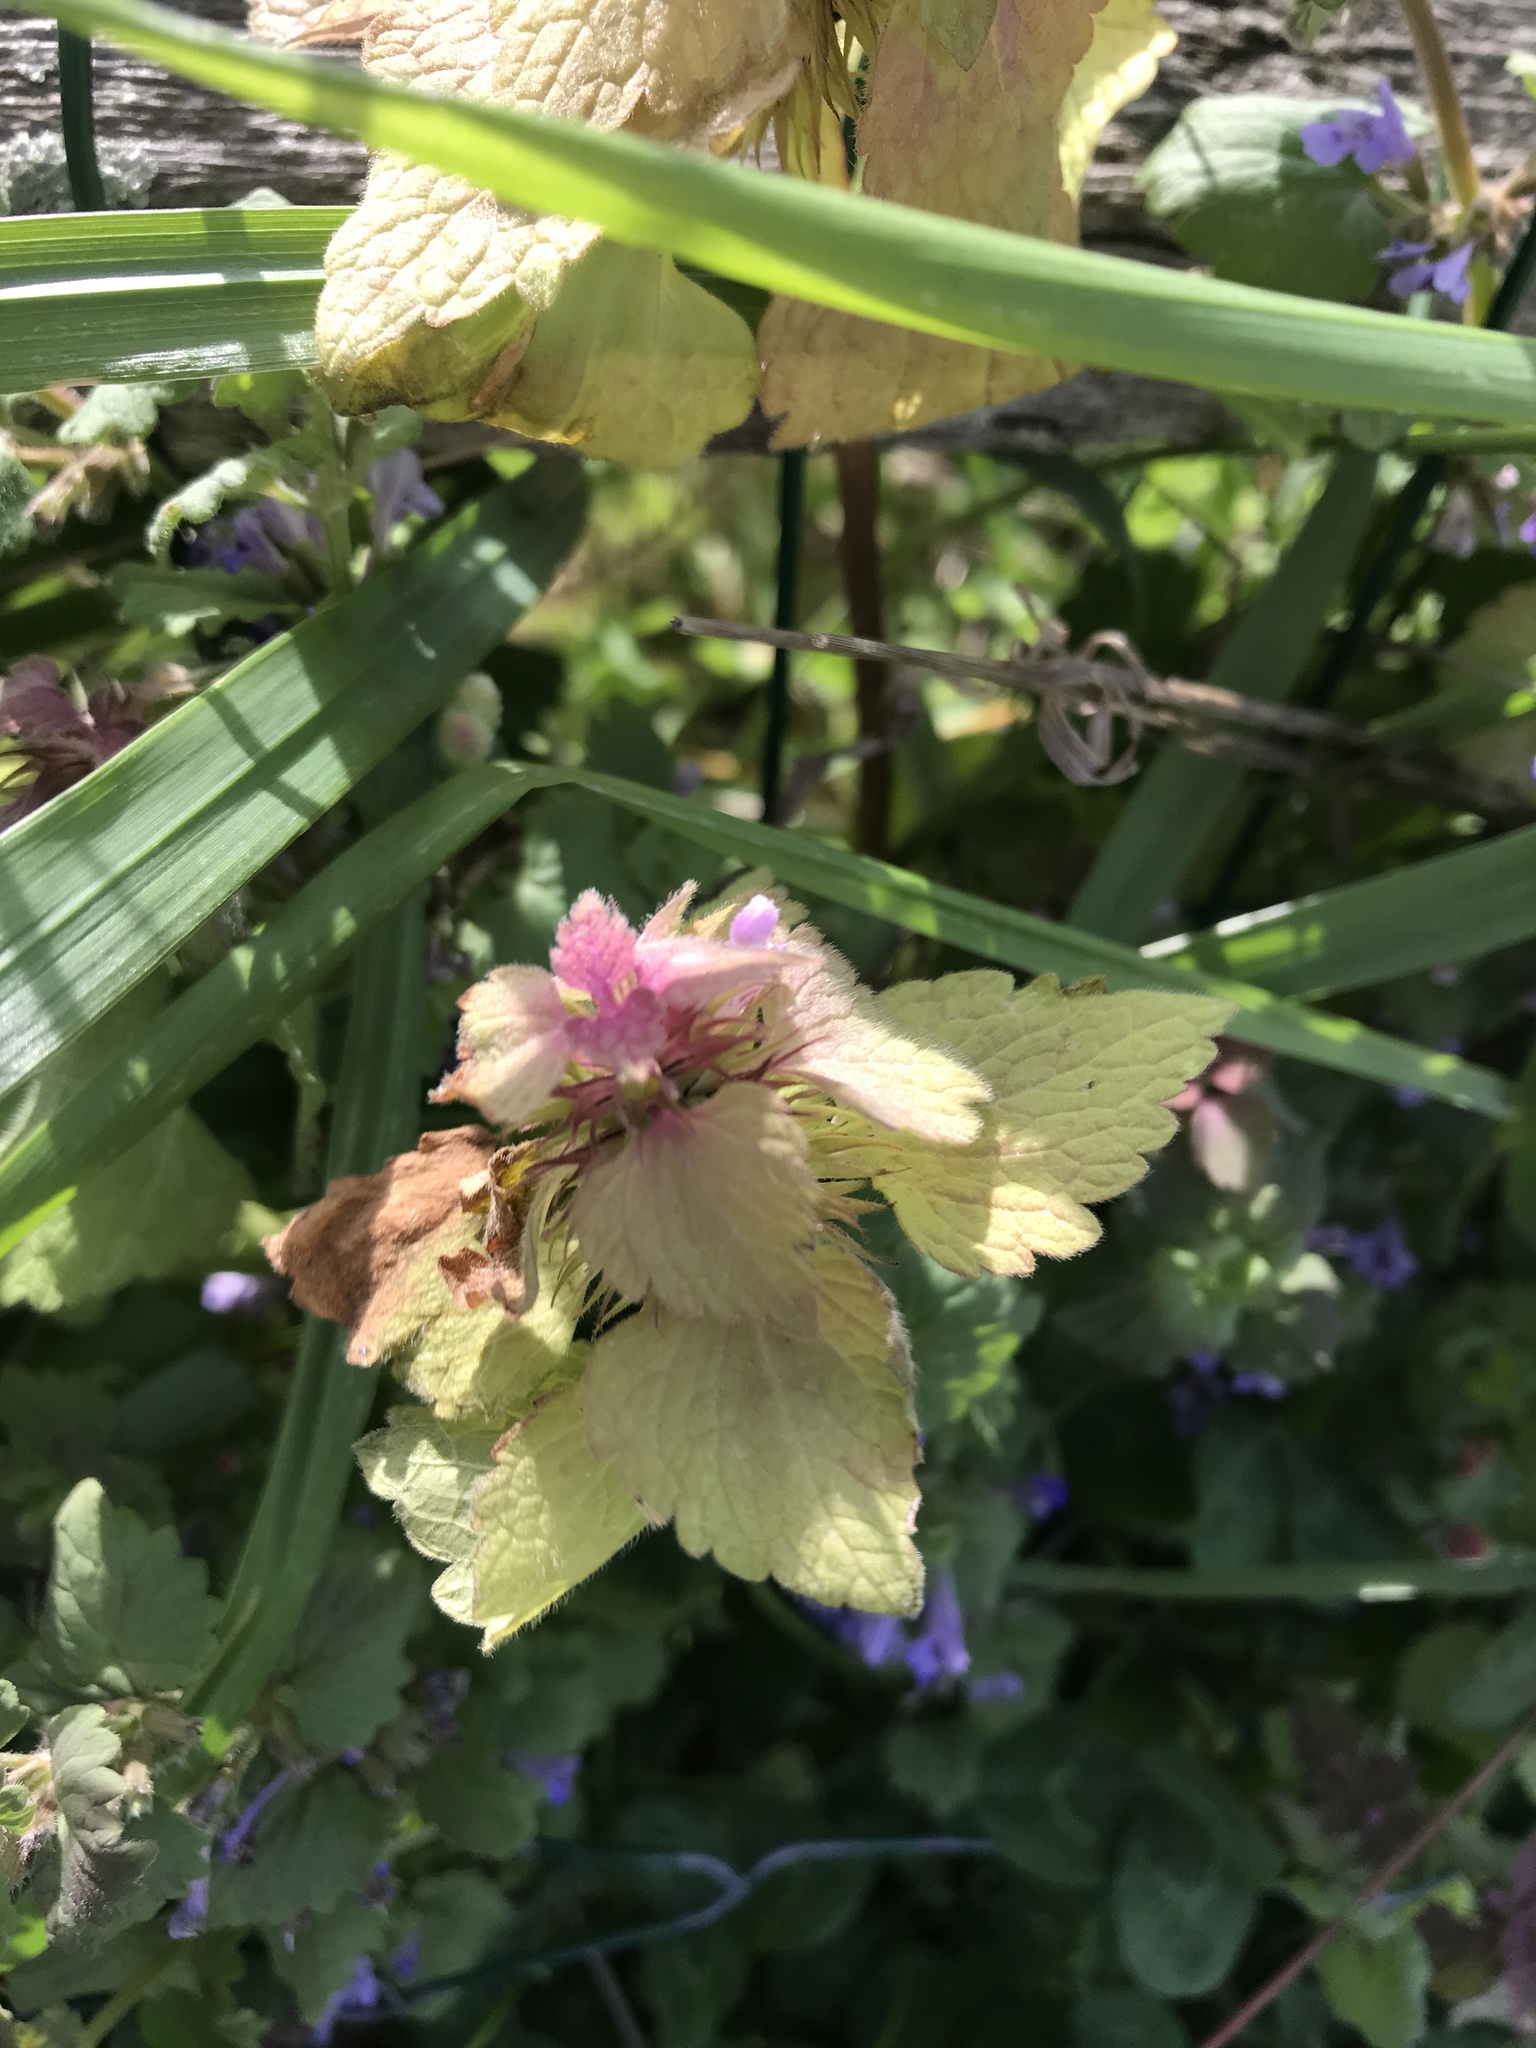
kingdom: Plantae
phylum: Tracheophyta
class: Magnoliopsida
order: Lamiales
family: Lamiaceae
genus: Lamium
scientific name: Lamium purpureum
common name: Red dead-nettle
